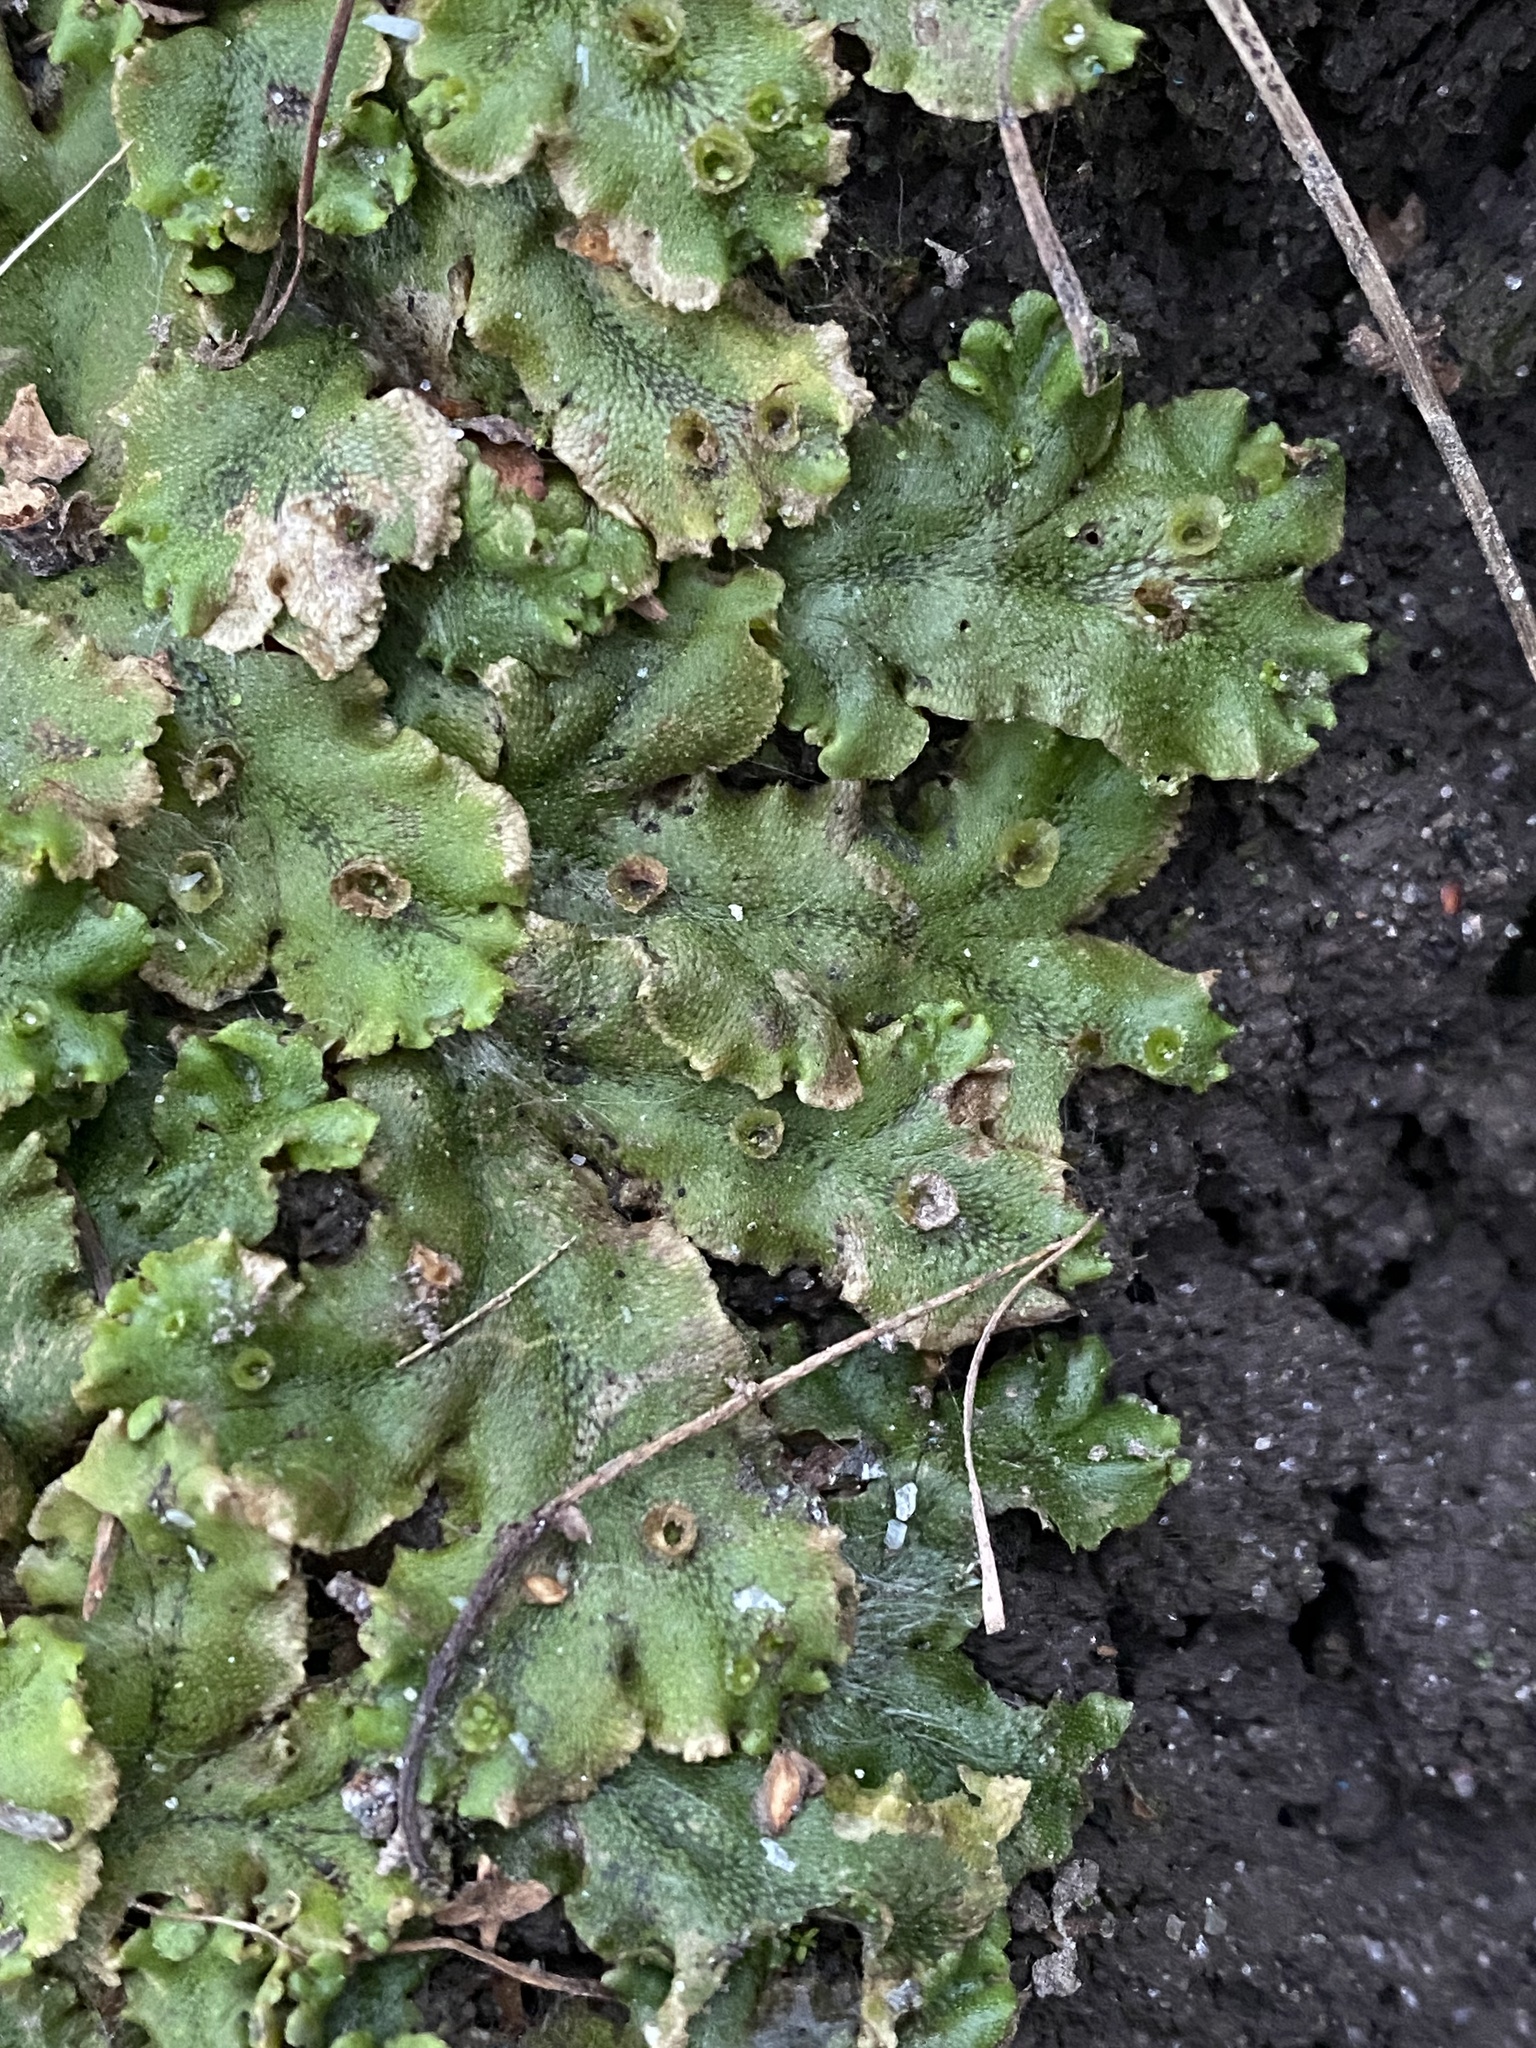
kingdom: Plantae
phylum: Marchantiophyta
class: Marchantiopsida
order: Marchantiales
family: Marchantiaceae
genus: Marchantia
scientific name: Marchantia polymorpha
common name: Common liverwort
